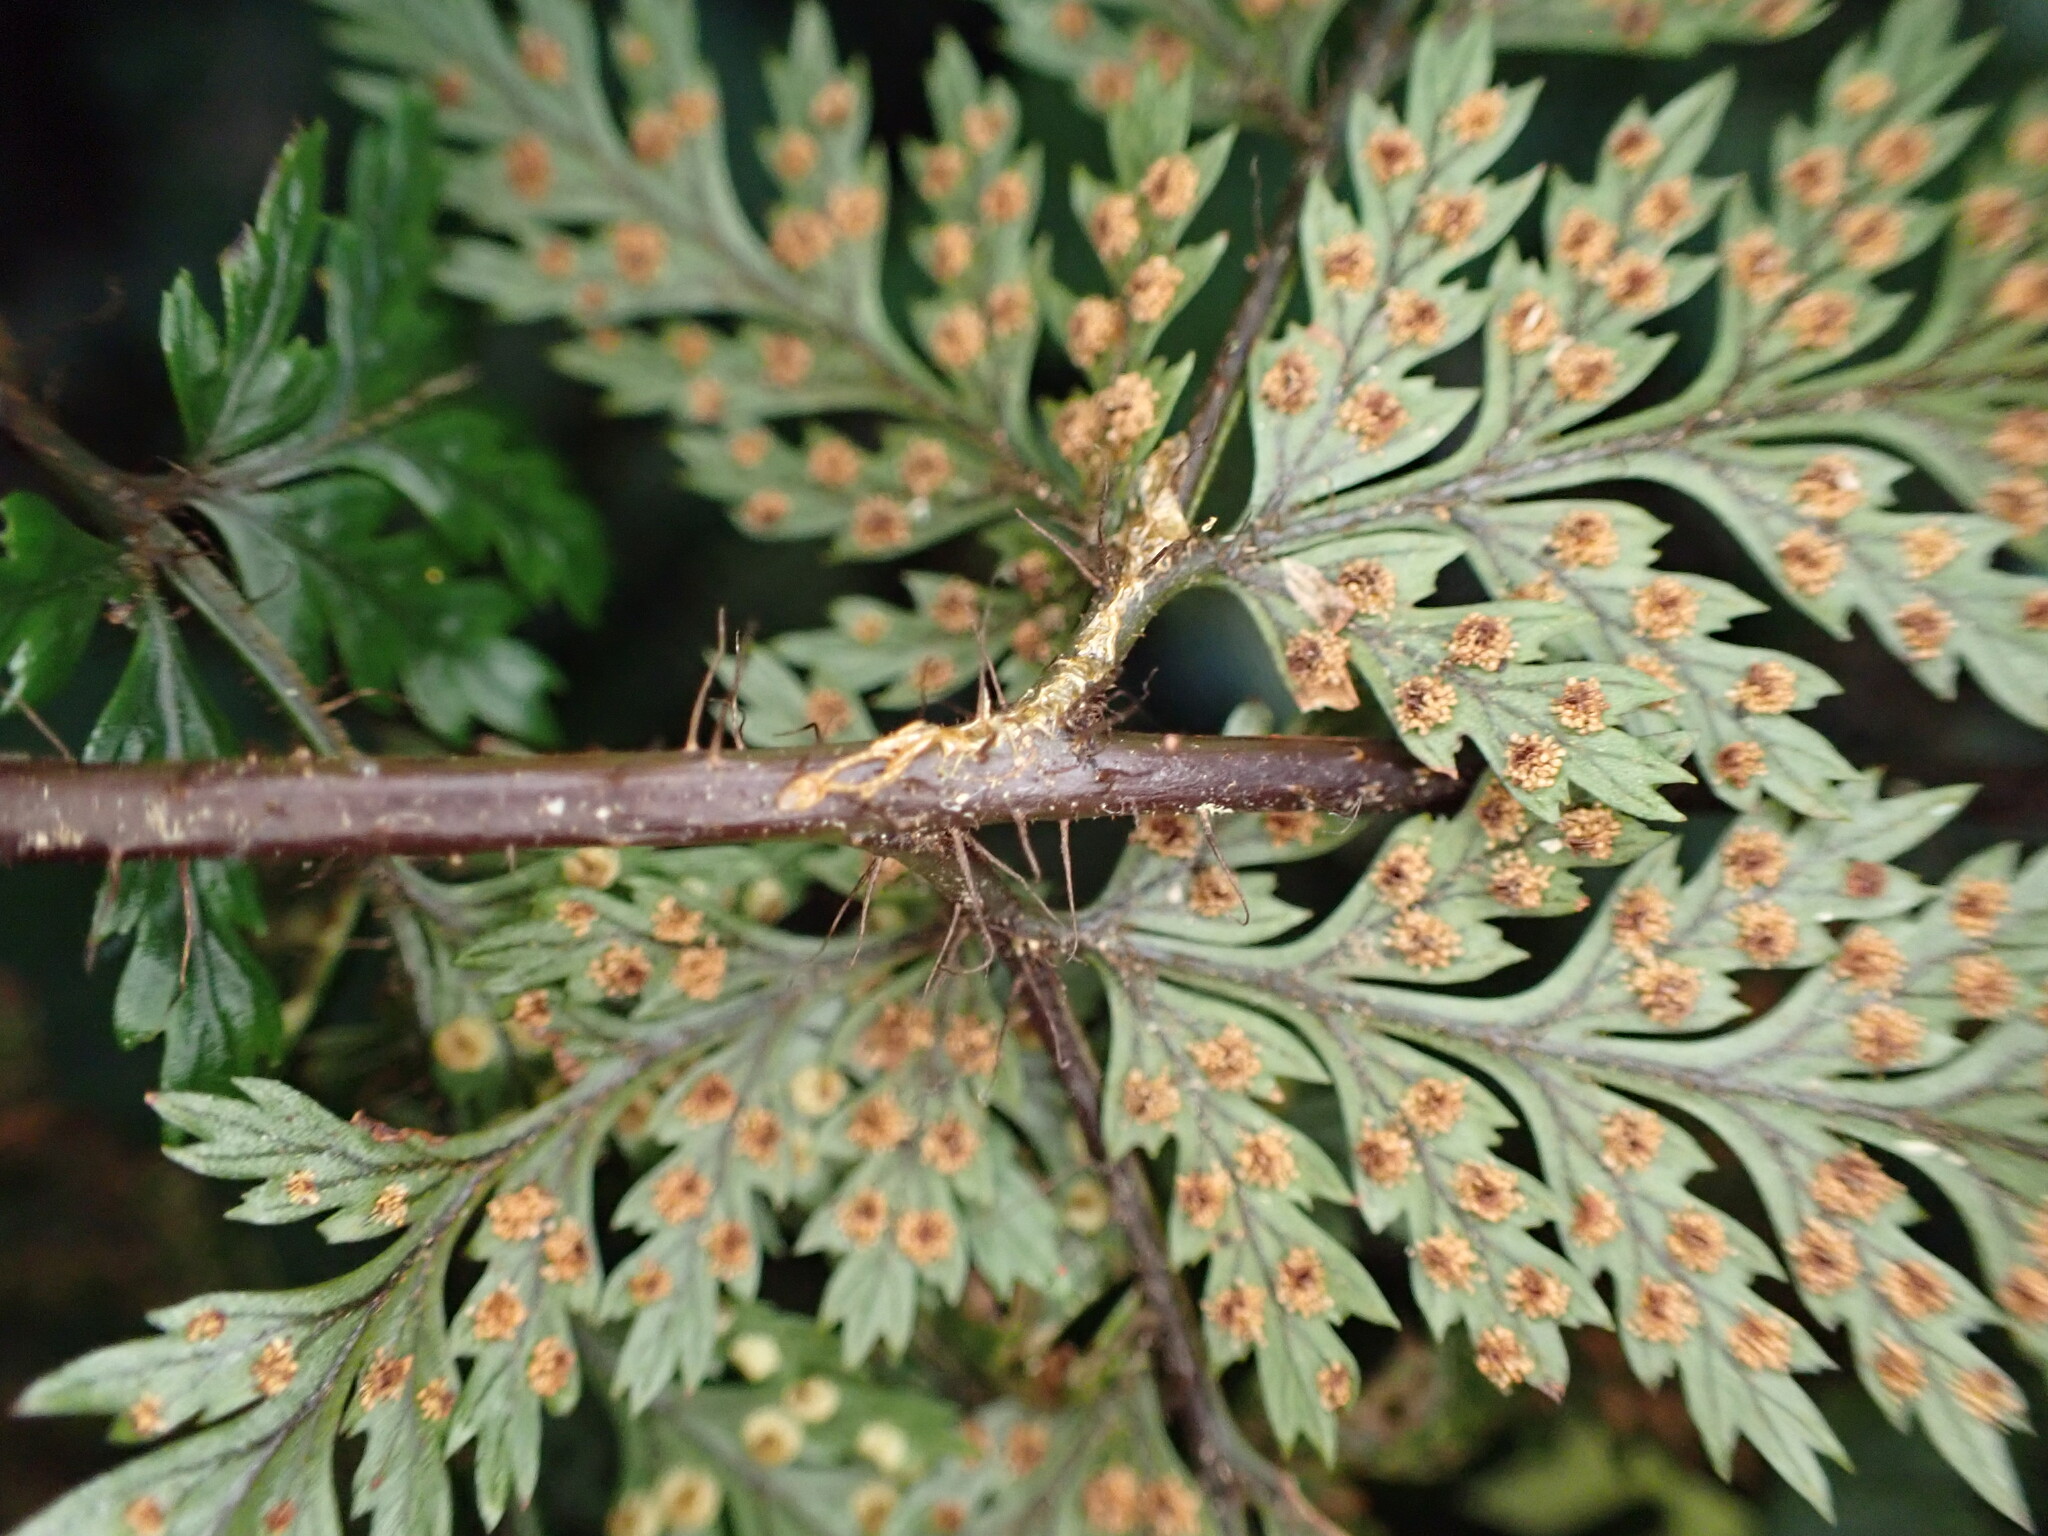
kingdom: Plantae
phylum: Tracheophyta
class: Polypodiopsida
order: Polypodiales
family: Dryopteridaceae
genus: Lastreopsis
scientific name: Lastreopsis hispida
